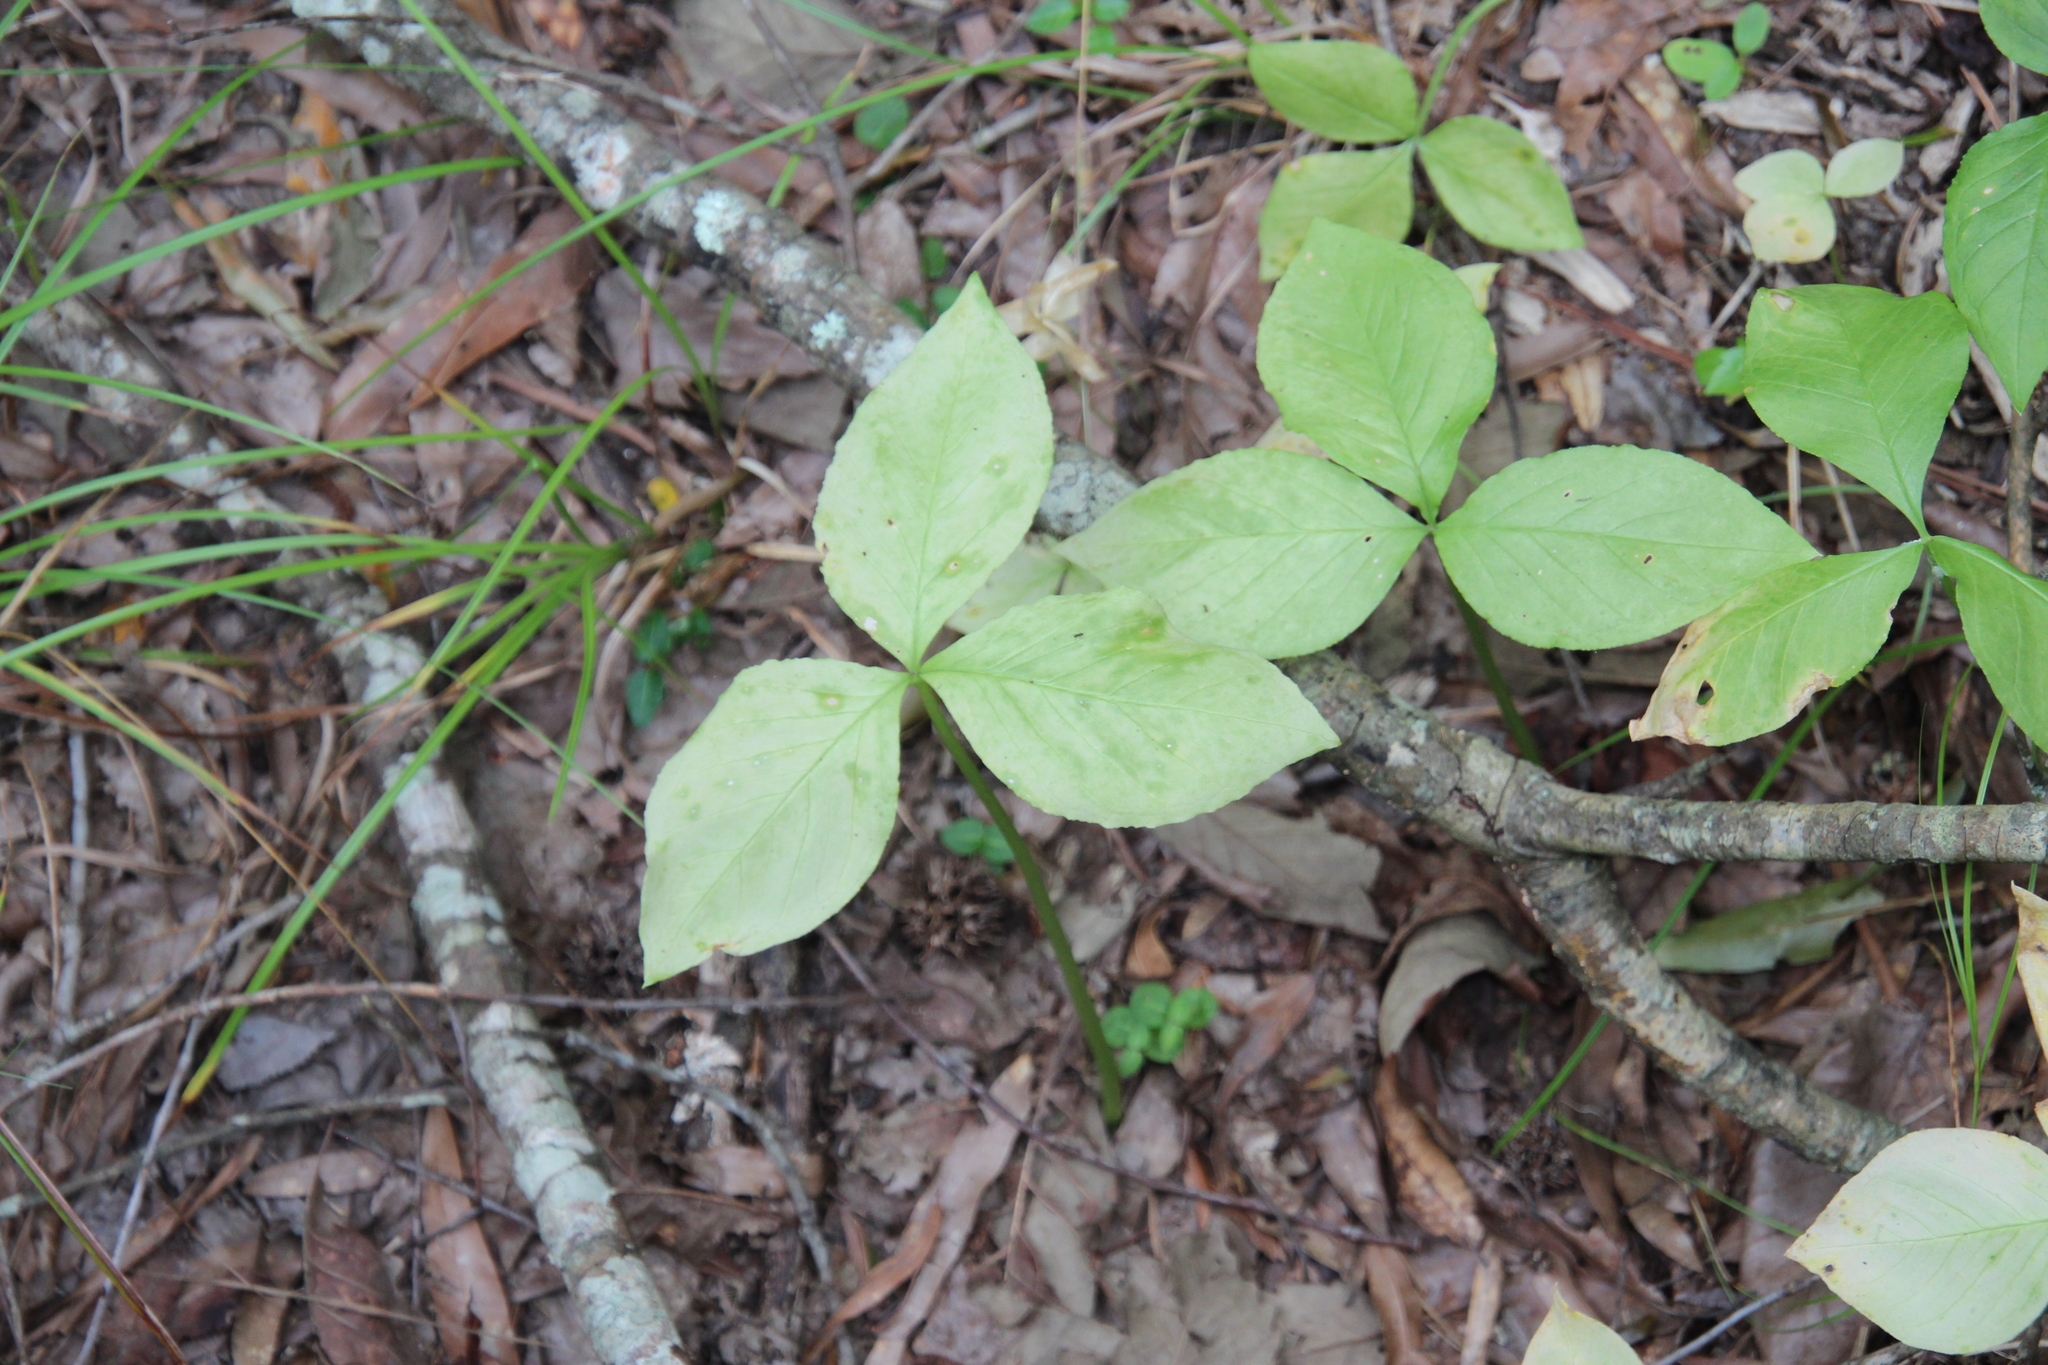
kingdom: Fungi
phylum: Basidiomycota
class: Pucciniomycetes
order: Pucciniales
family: Pucciniaceae
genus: Uromyces
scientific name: Uromyces ari-triphylli
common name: Jack-in-the-pulpit rust
